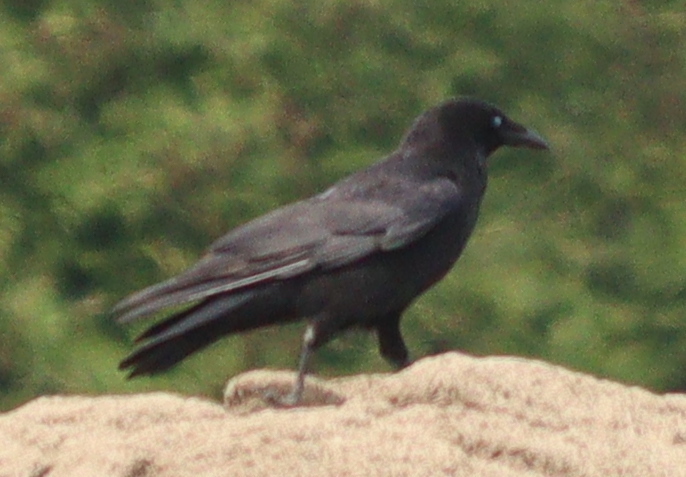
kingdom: Animalia
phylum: Chordata
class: Aves
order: Passeriformes
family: Corvidae
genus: Corvus
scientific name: Corvus corone
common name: Carrion crow
